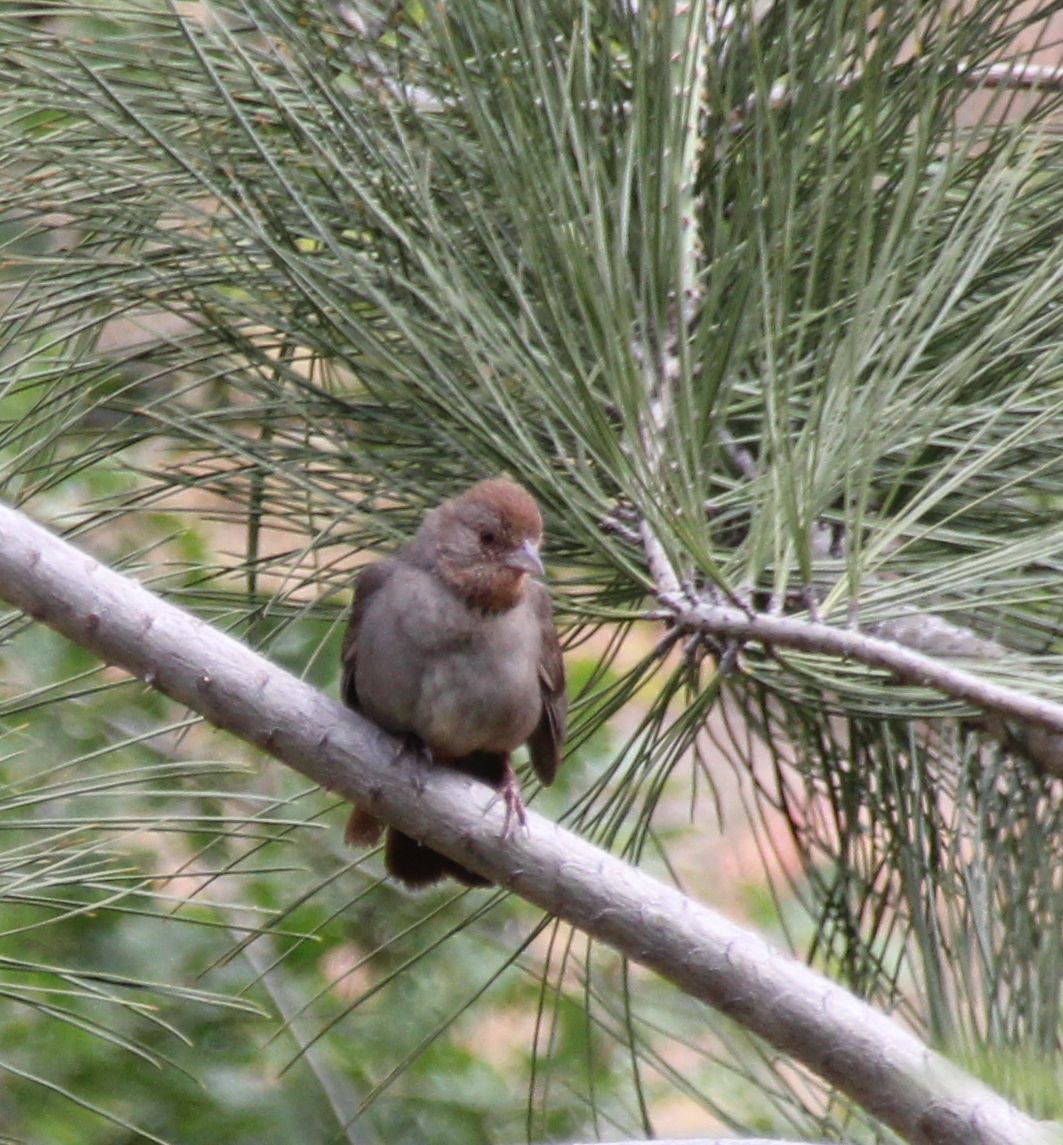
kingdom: Animalia
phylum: Chordata
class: Aves
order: Passeriformes
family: Passerellidae
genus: Melozone
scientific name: Melozone crissalis
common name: California towhee
